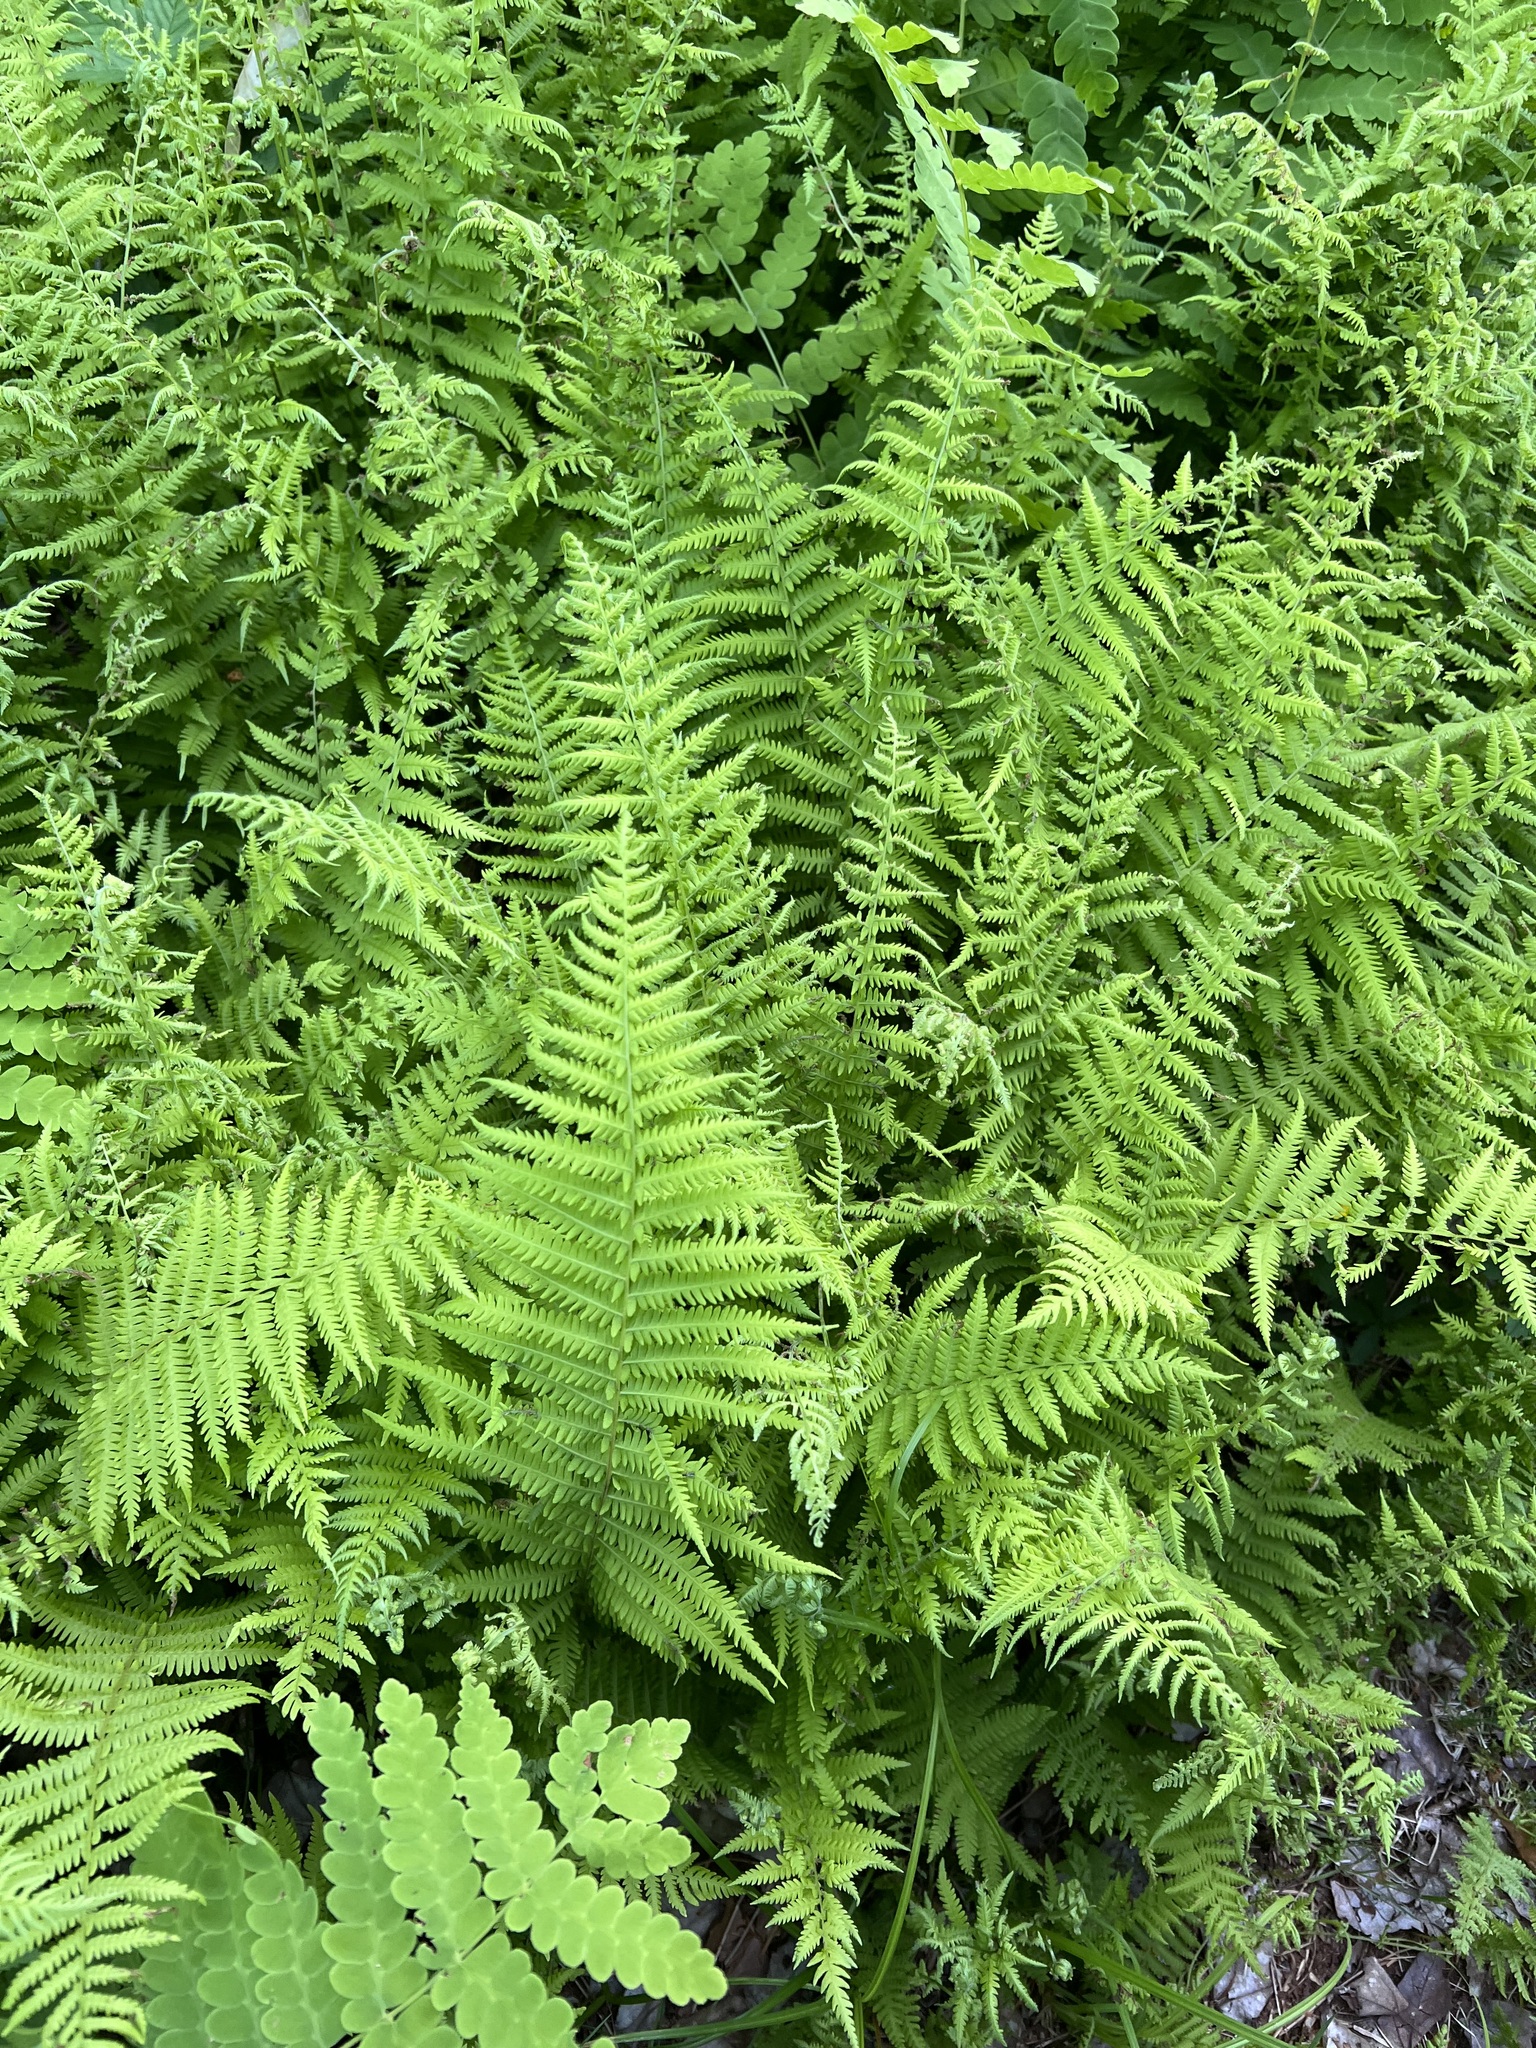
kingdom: Plantae
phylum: Tracheophyta
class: Polypodiopsida
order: Polypodiales
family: Thelypteridaceae
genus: Amauropelta
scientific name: Amauropelta noveboracensis
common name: New york fern
